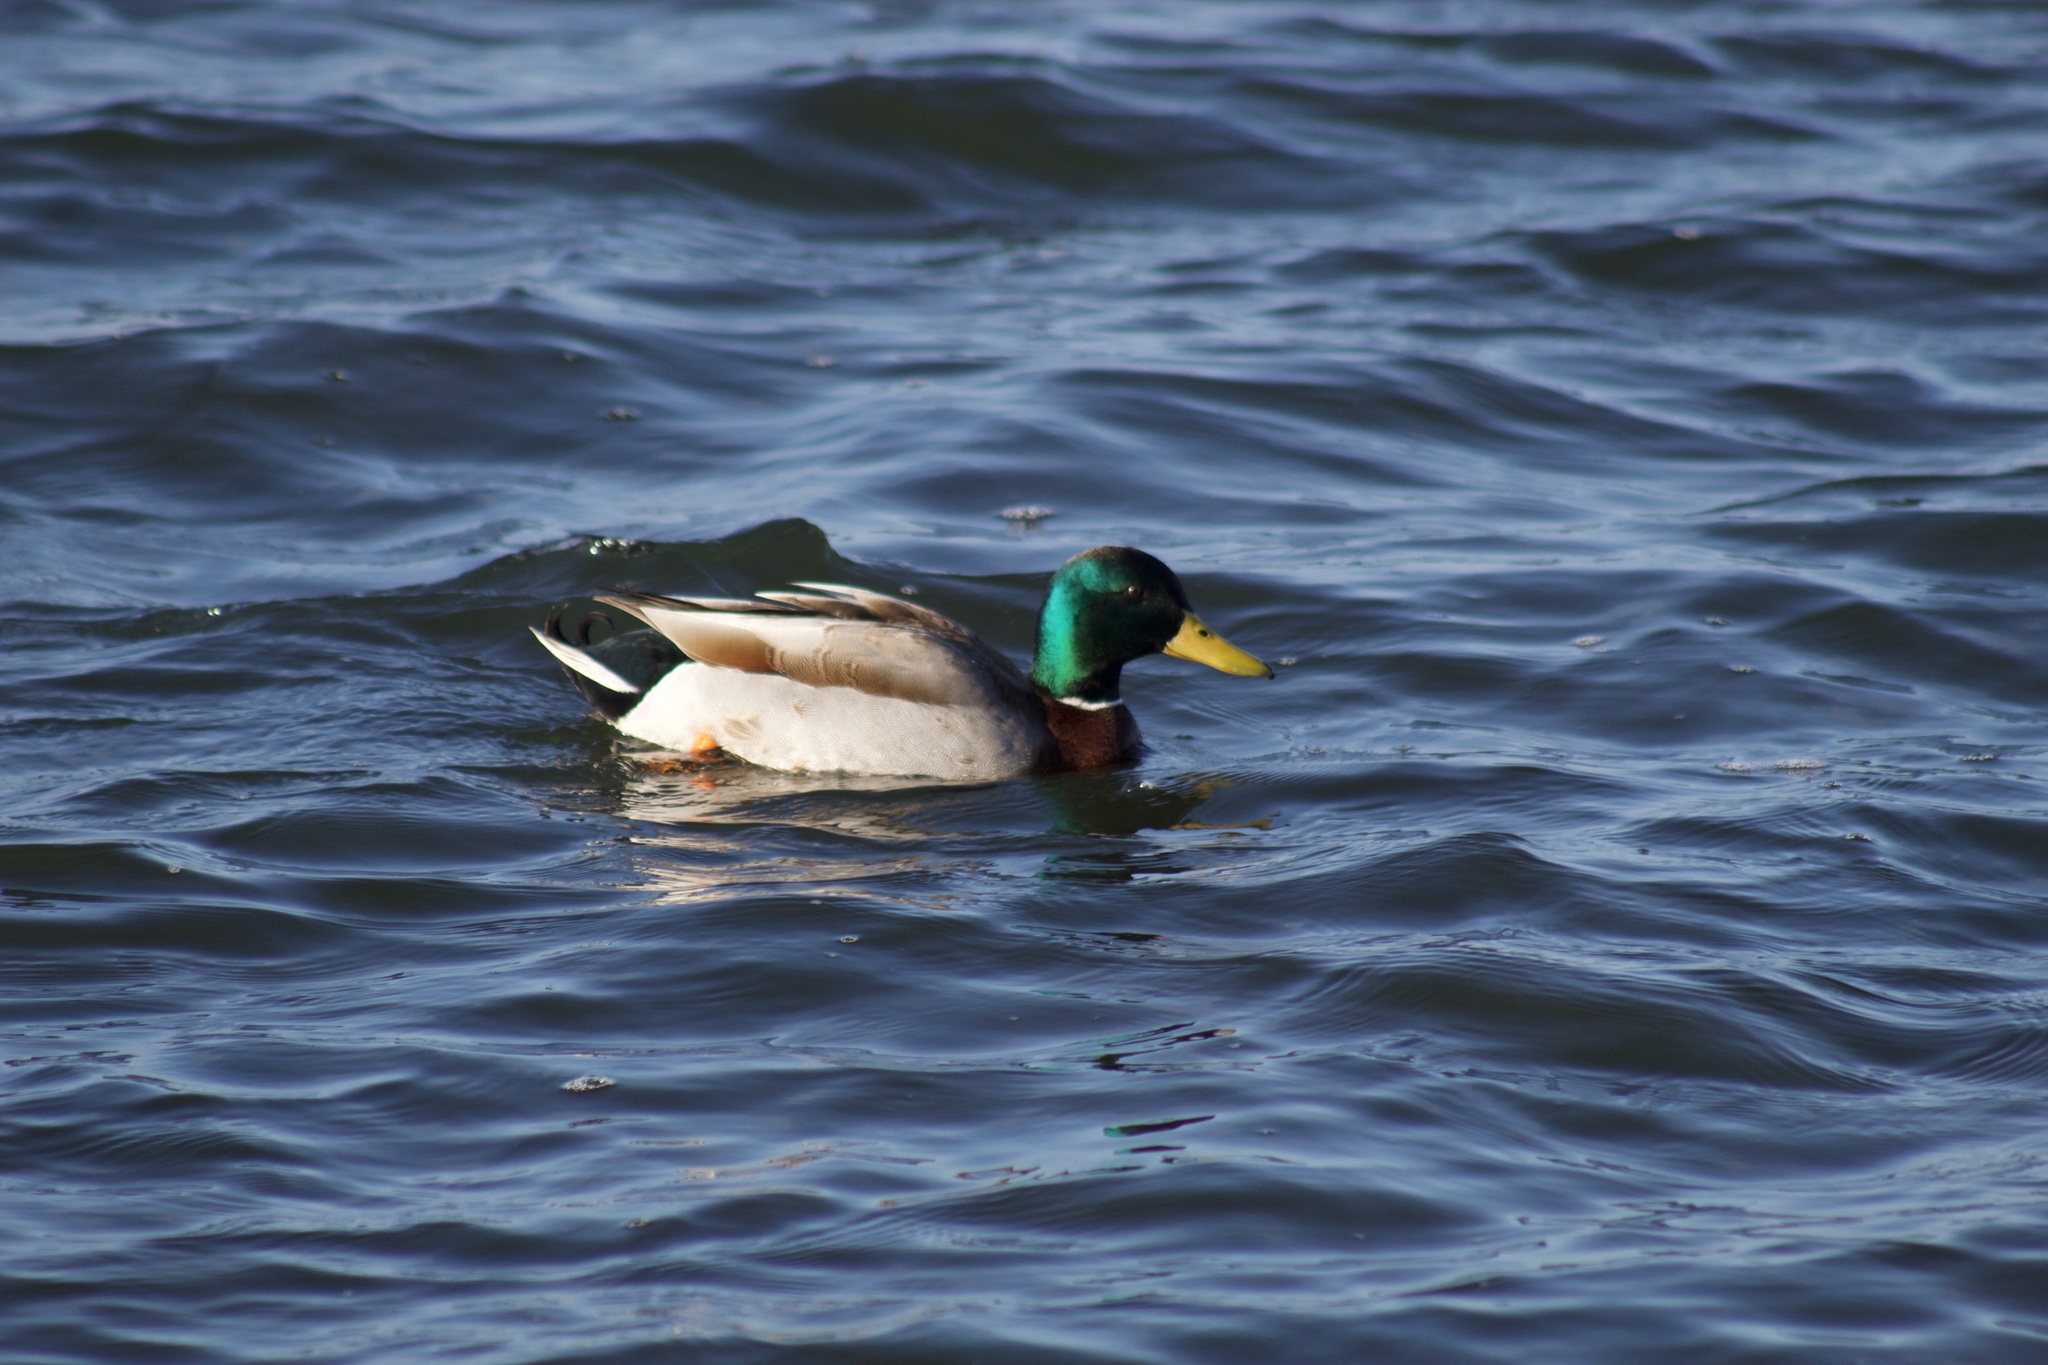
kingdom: Animalia
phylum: Chordata
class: Aves
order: Anseriformes
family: Anatidae
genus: Anas
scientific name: Anas platyrhynchos
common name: Mallard
